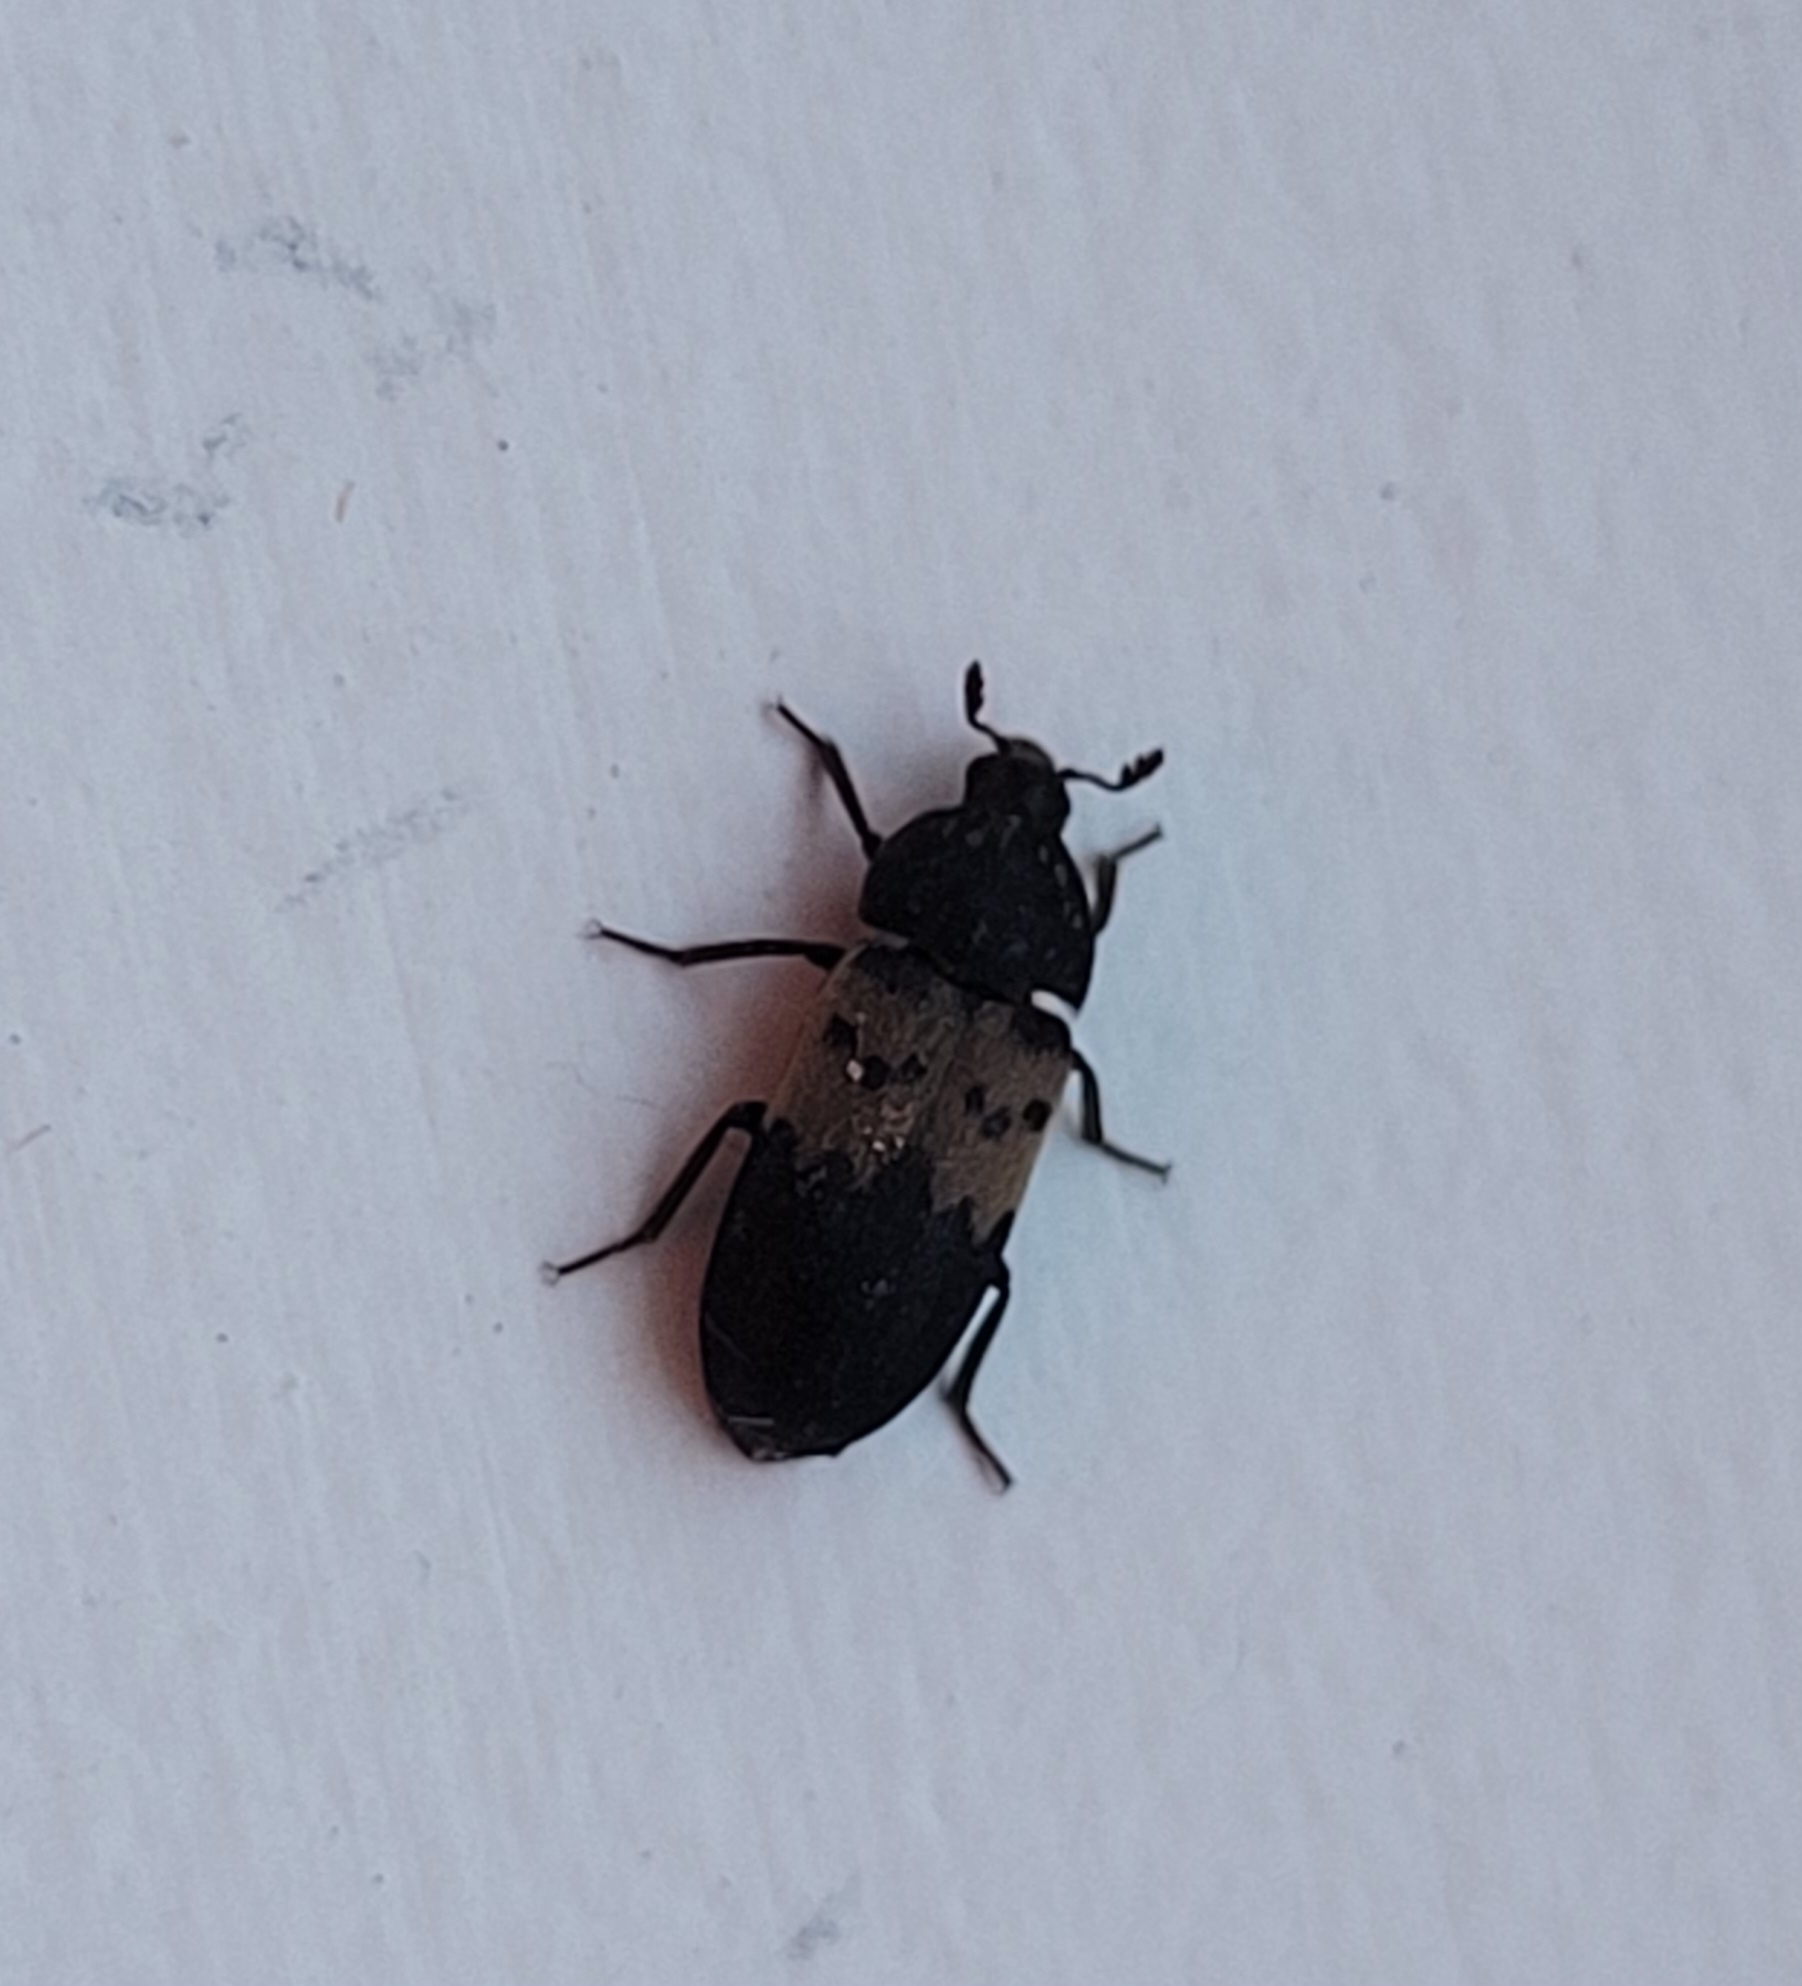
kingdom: Animalia
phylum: Arthropoda
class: Insecta
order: Coleoptera
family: Dermestidae
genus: Dermestes
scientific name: Dermestes lardarius
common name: Larder beetle
